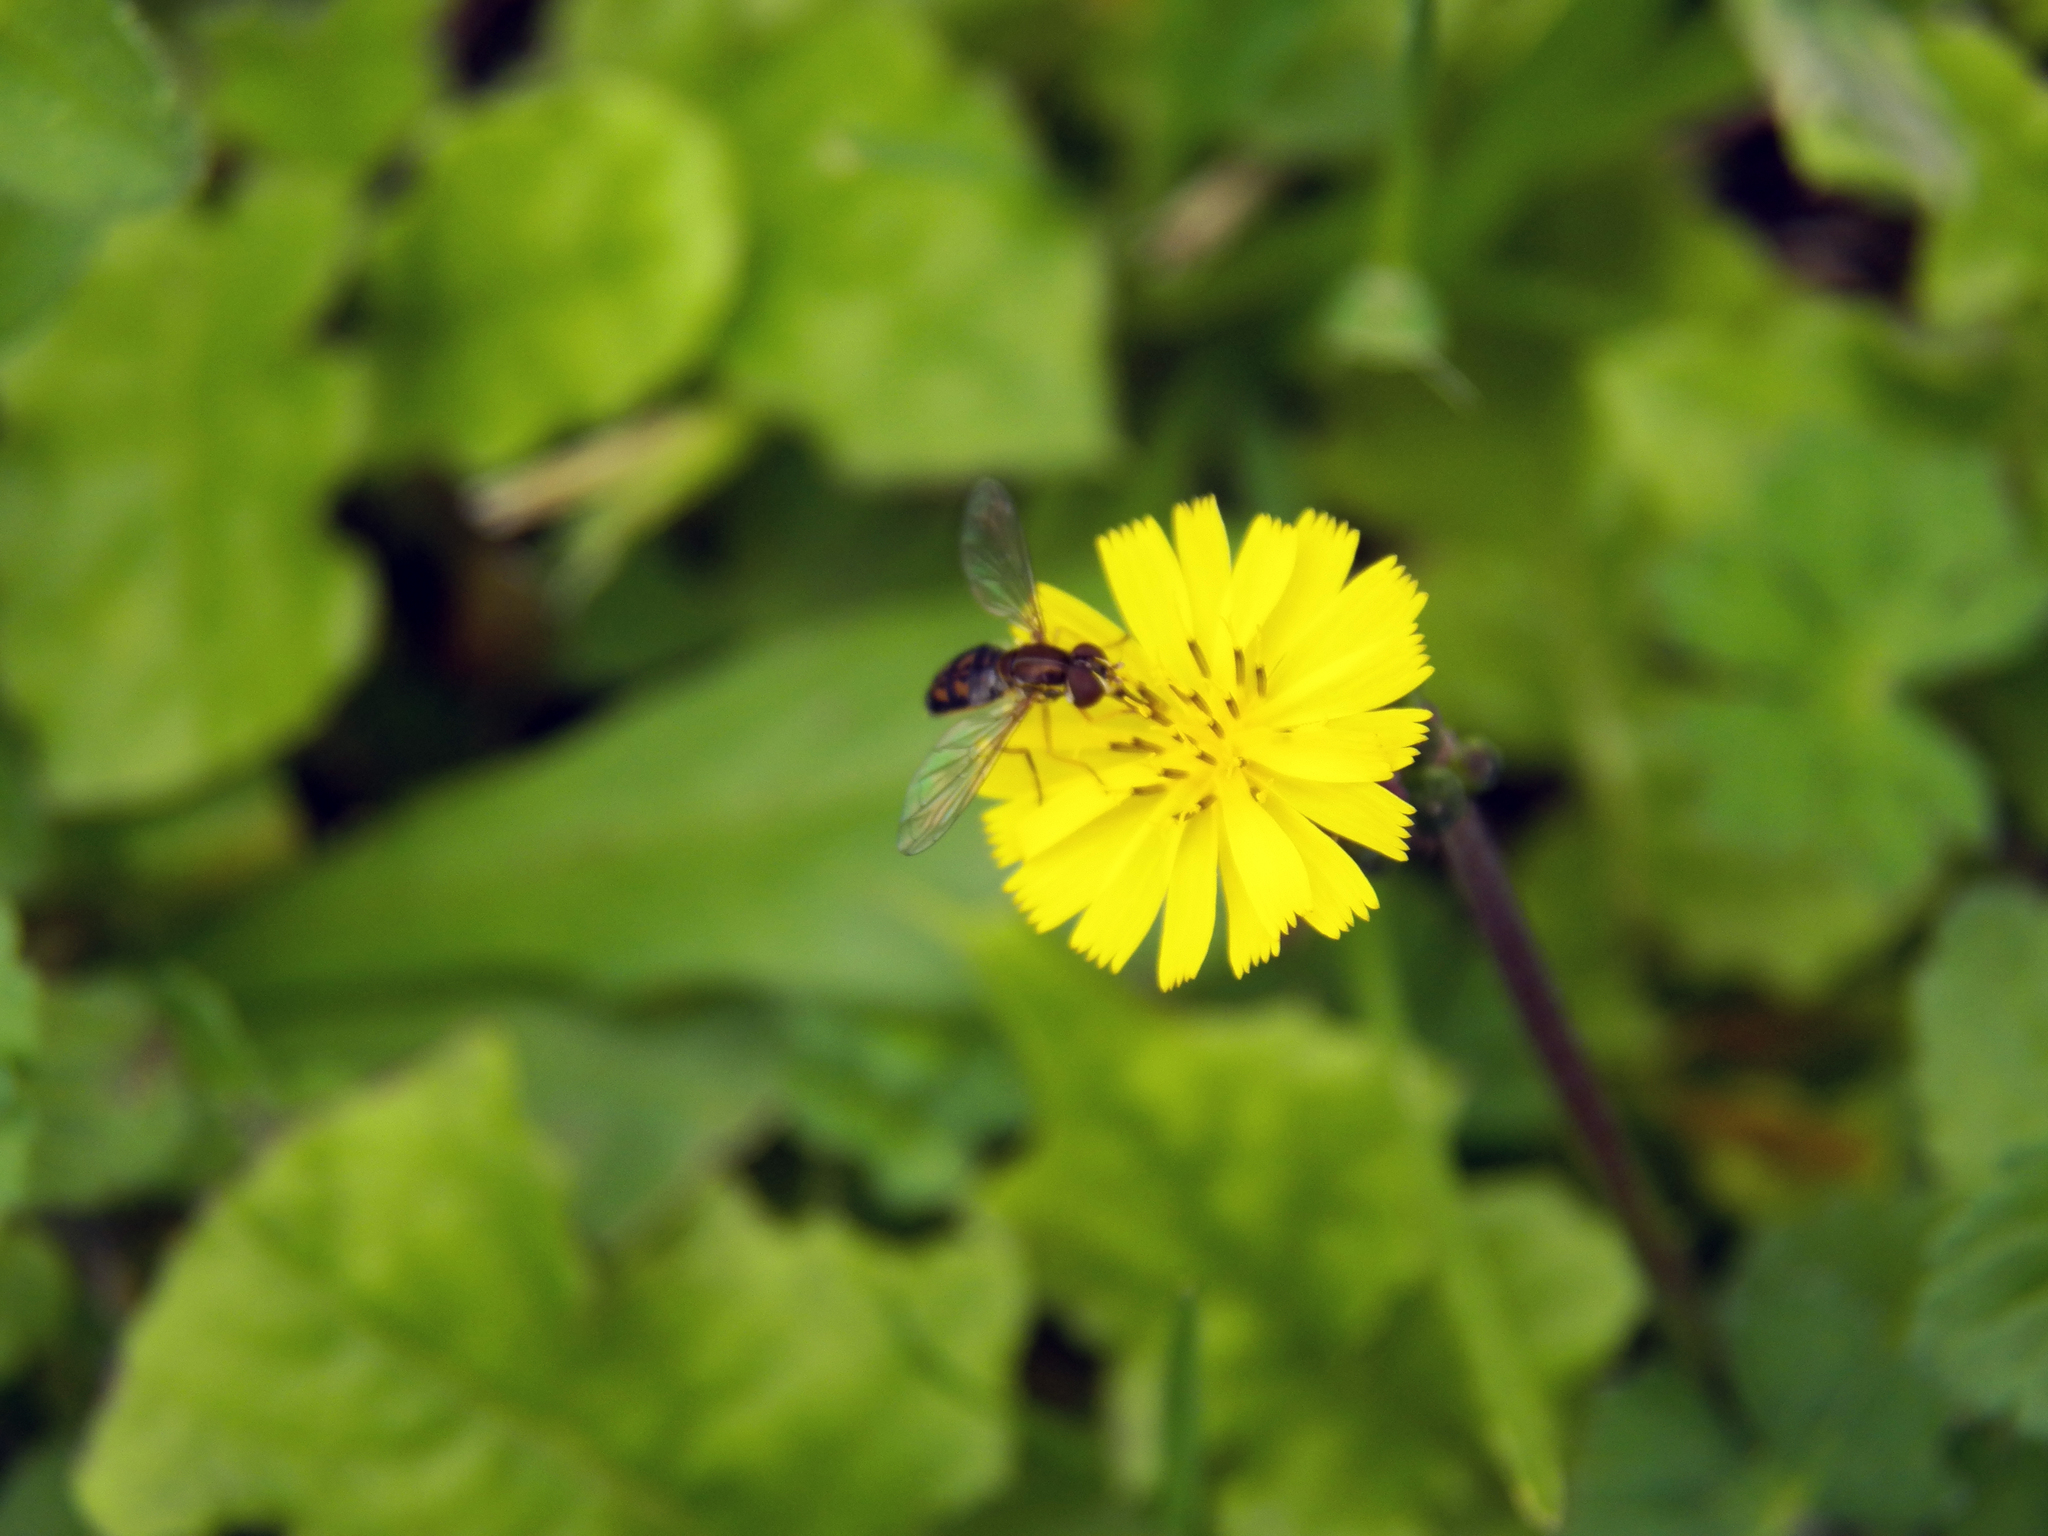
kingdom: Plantae
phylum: Tracheophyta
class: Magnoliopsida
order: Asterales
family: Asteraceae
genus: Youngia
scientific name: Youngia japonica
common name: Oriental false hawksbeard
